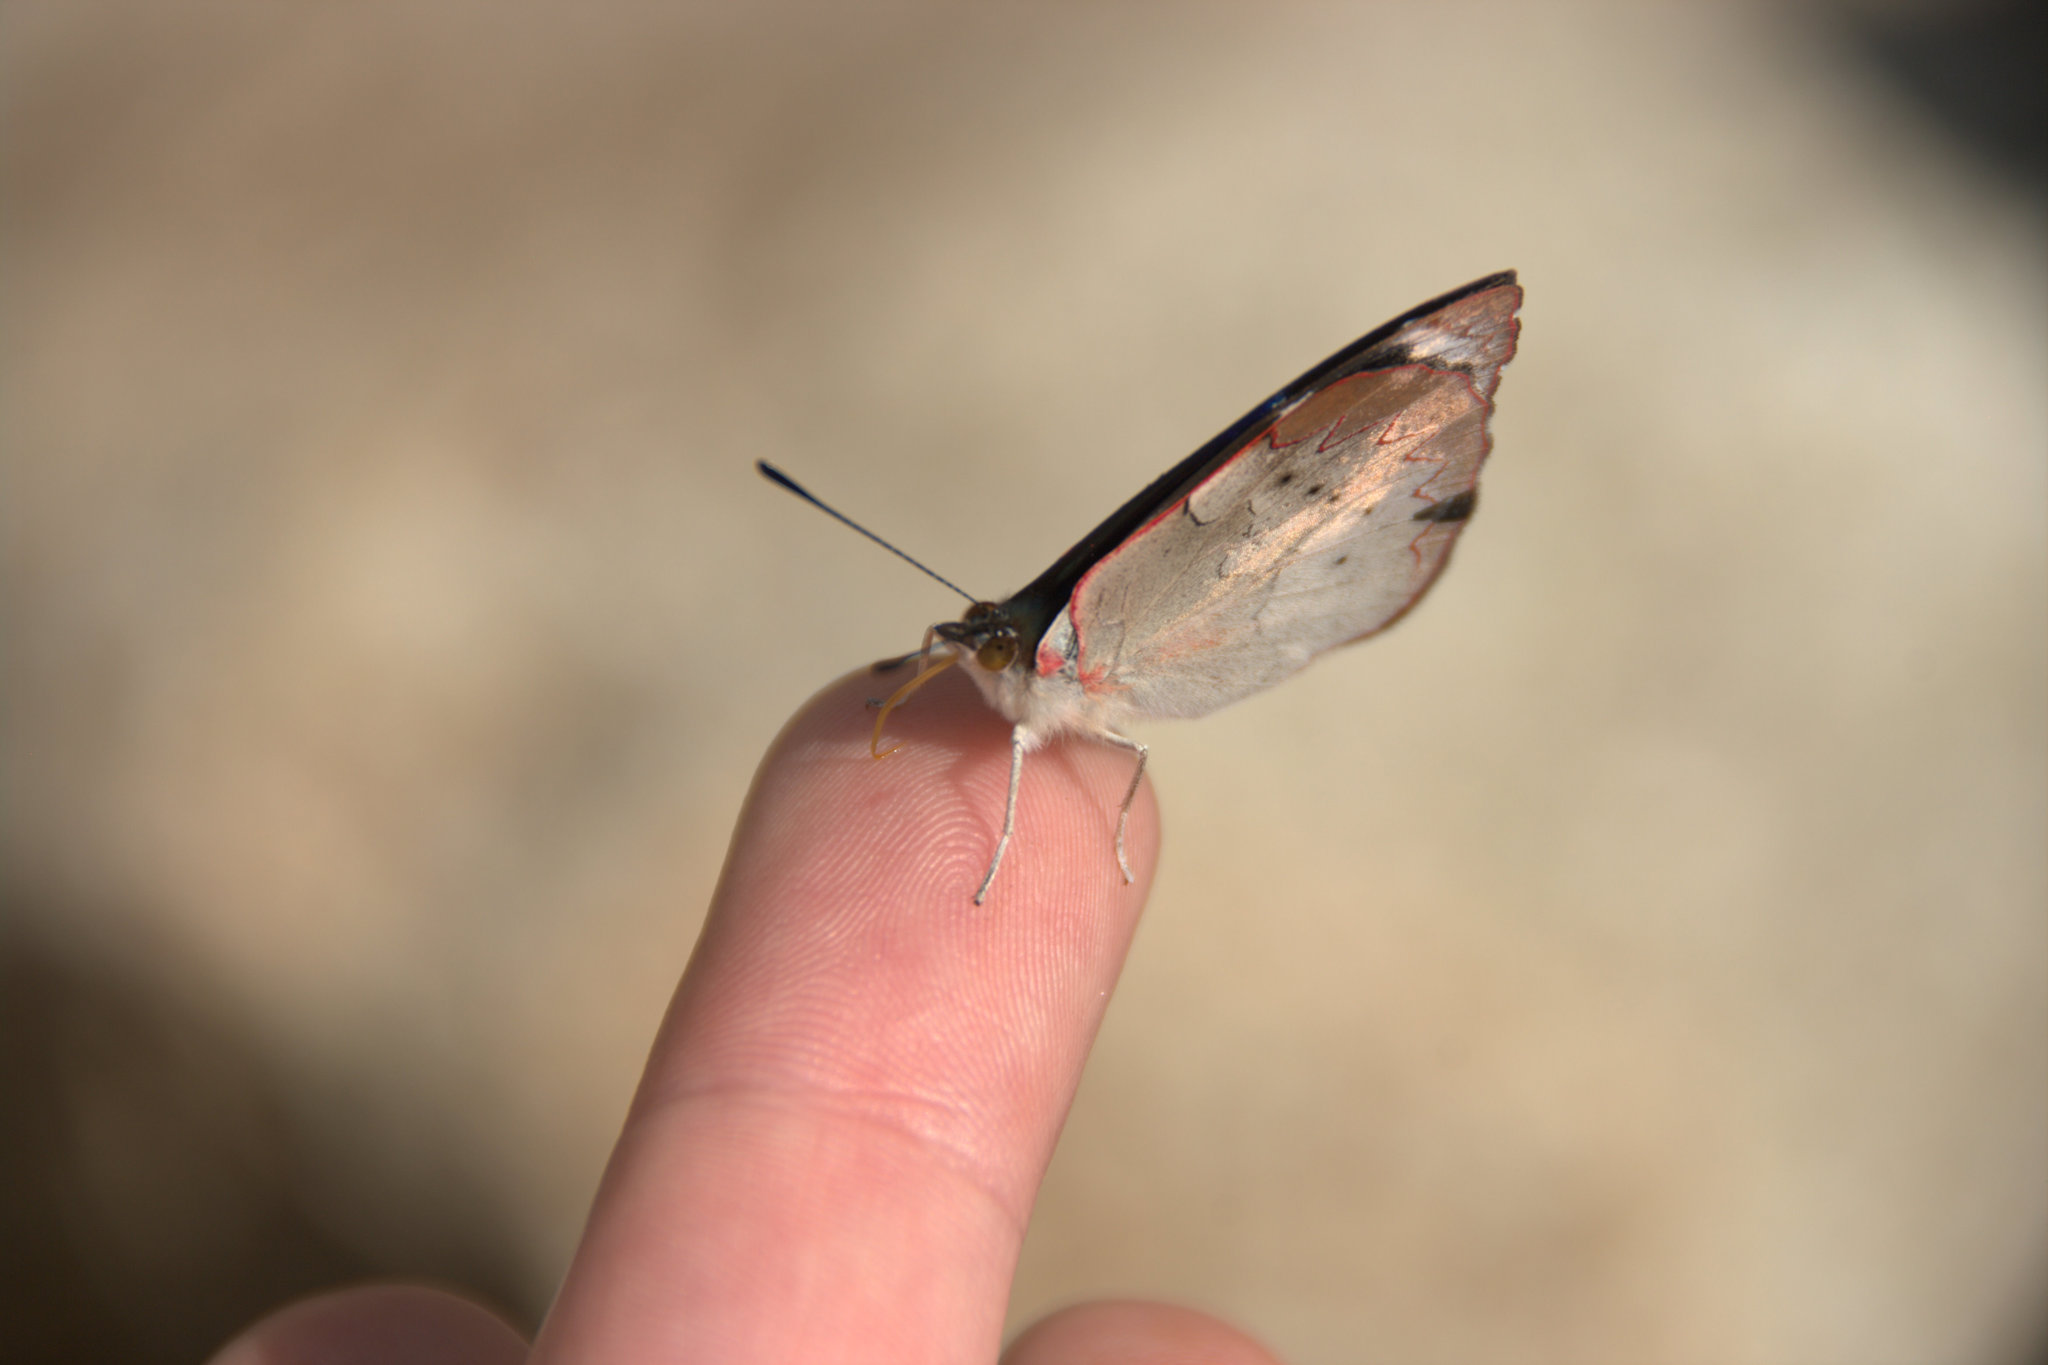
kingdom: Animalia
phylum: Arthropoda
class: Insecta
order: Lepidoptera
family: Nymphalidae
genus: Perisama
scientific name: Perisama calamis
